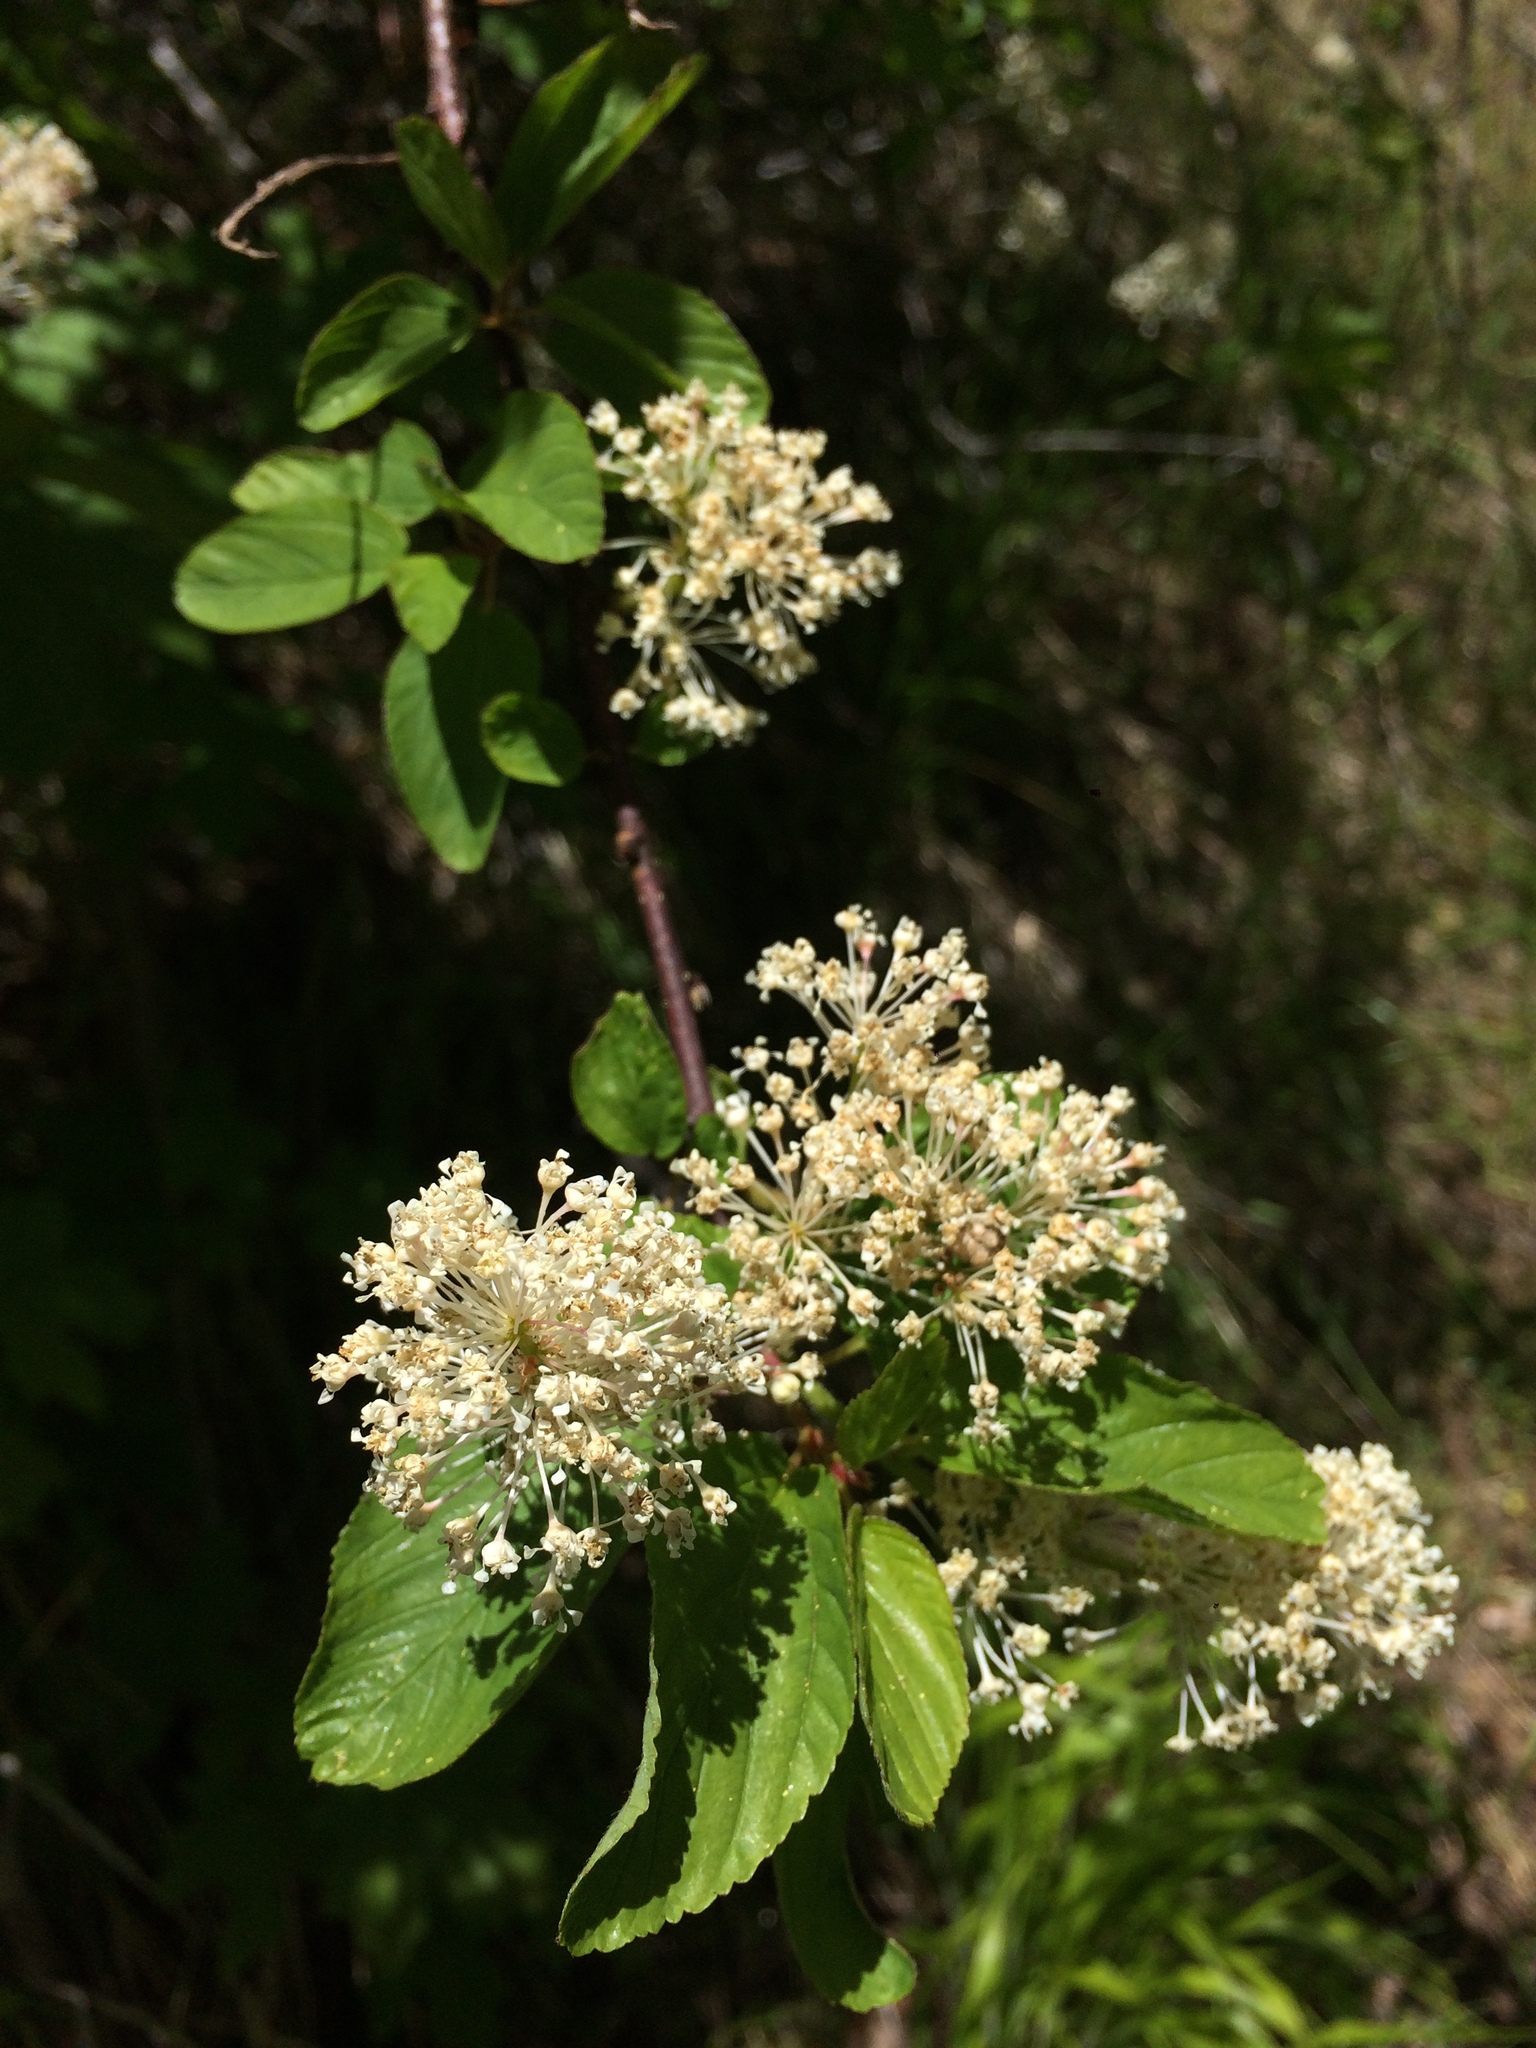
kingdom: Plantae
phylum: Tracheophyta
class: Magnoliopsida
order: Rosales
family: Rhamnaceae
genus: Ceanothus
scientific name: Ceanothus sanguineus
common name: Teatree
